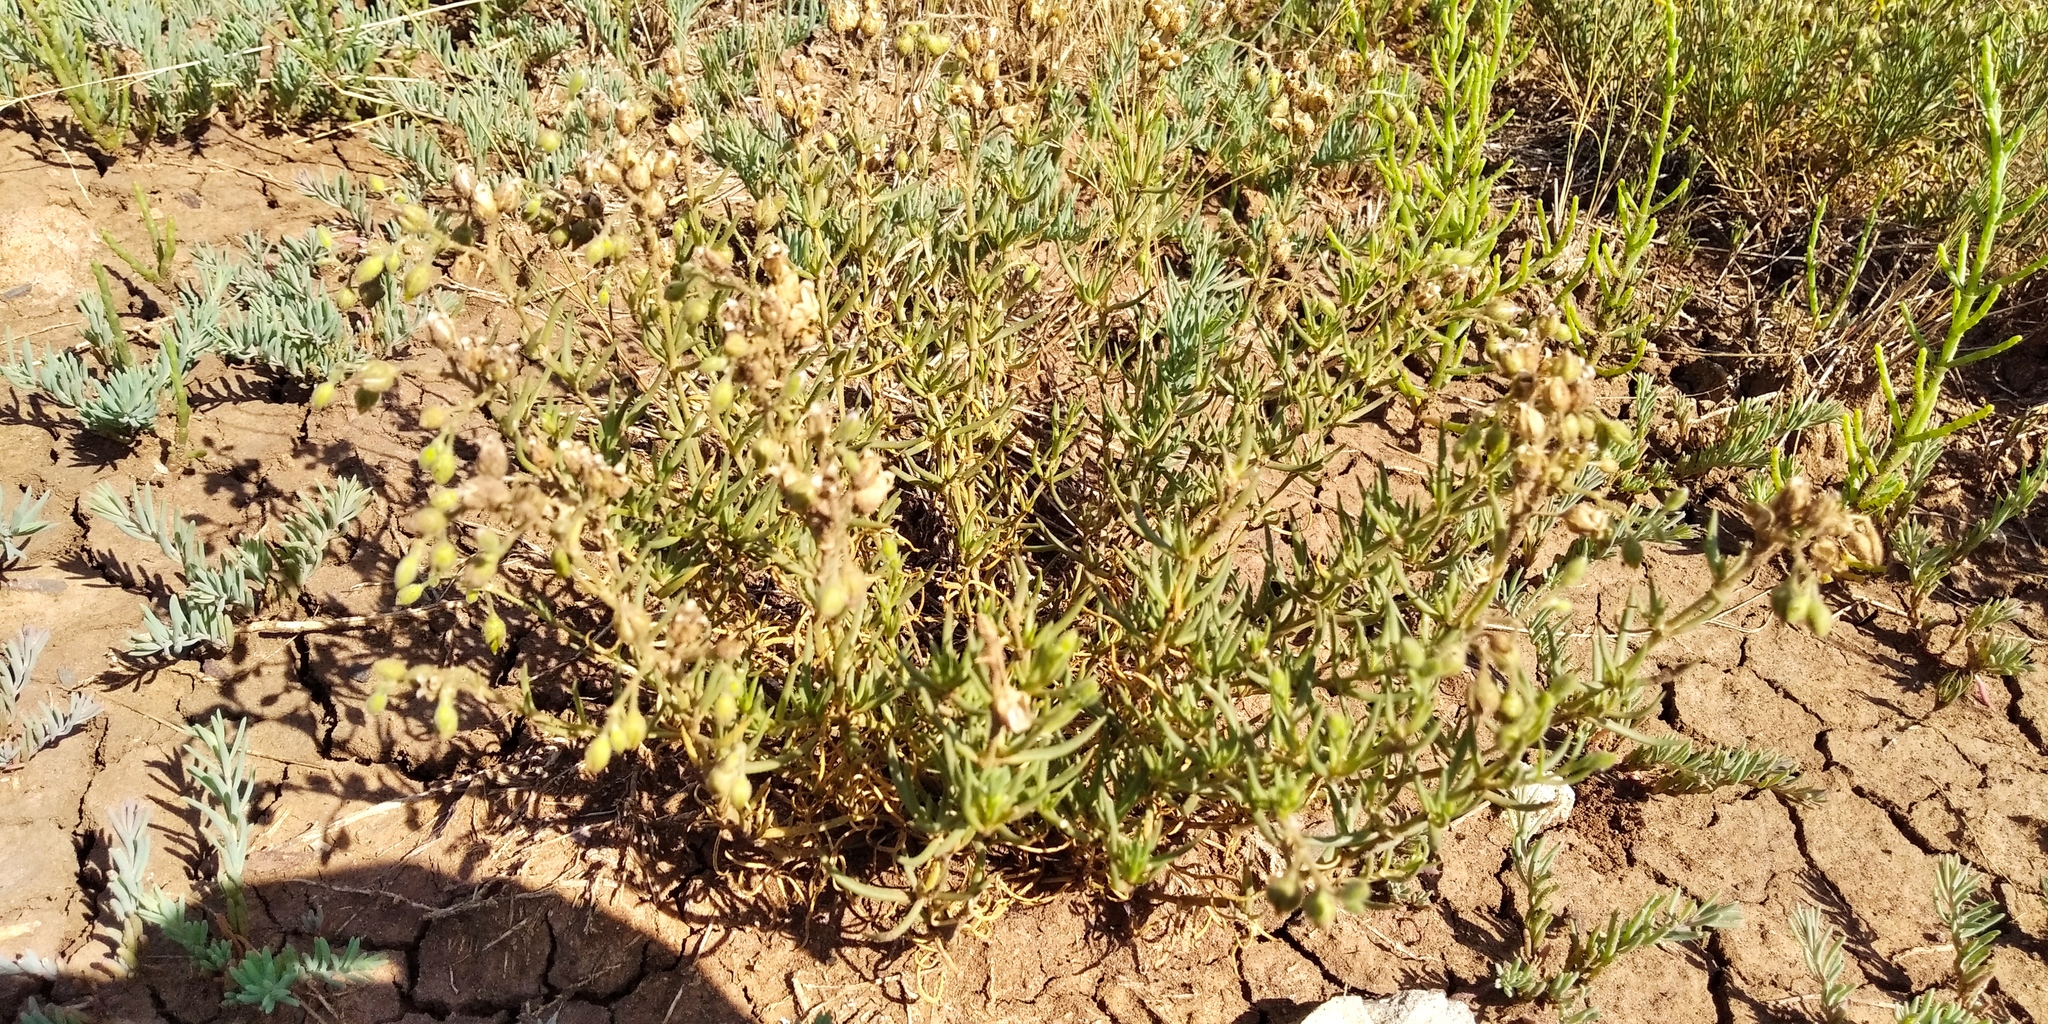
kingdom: Plantae
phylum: Tracheophyta
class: Magnoliopsida
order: Caryophyllales
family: Caryophyllaceae
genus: Spergularia
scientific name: Spergularia media
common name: Greater sea-spurrey
